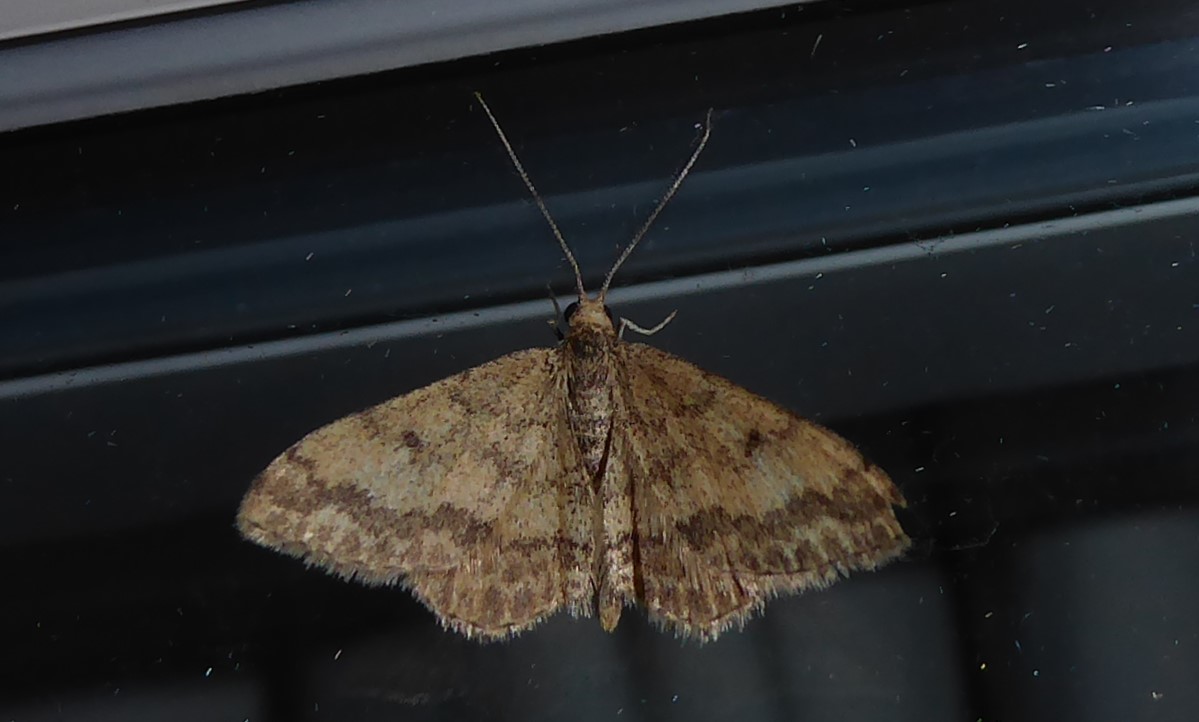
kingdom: Animalia
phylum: Arthropoda
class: Insecta
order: Lepidoptera
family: Geometridae
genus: Scopula
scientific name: Scopula rubraria
